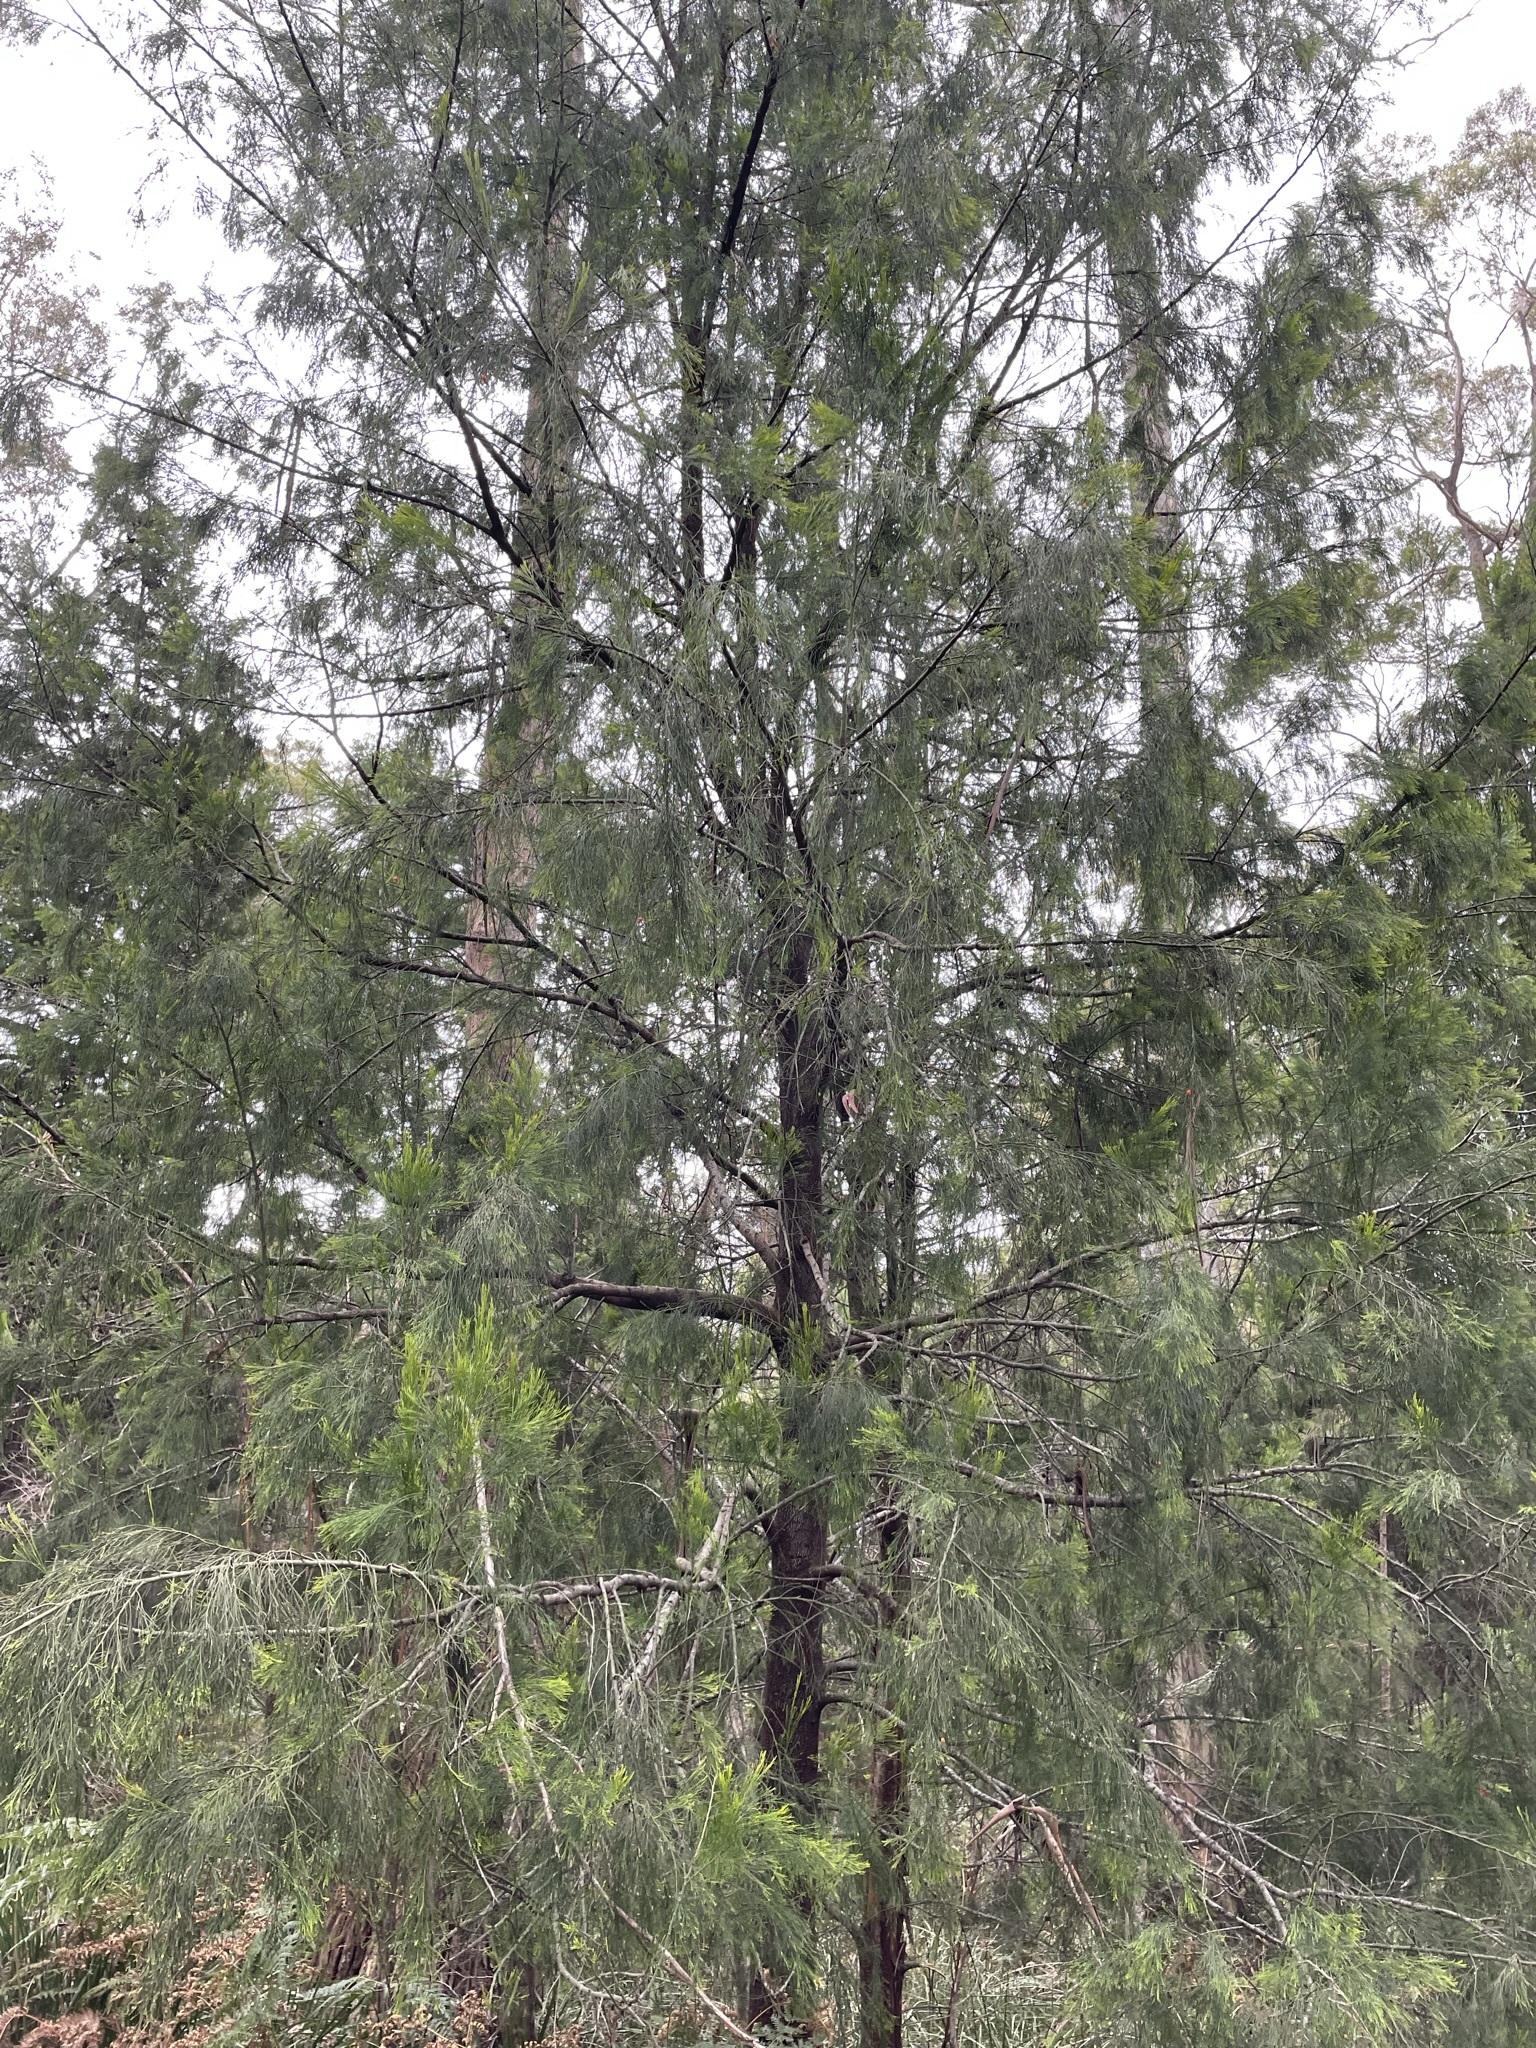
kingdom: Plantae
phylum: Tracheophyta
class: Magnoliopsida
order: Santalales
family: Santalaceae
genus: Exocarpos
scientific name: Exocarpos cupressiformis
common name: Cherry ballart
